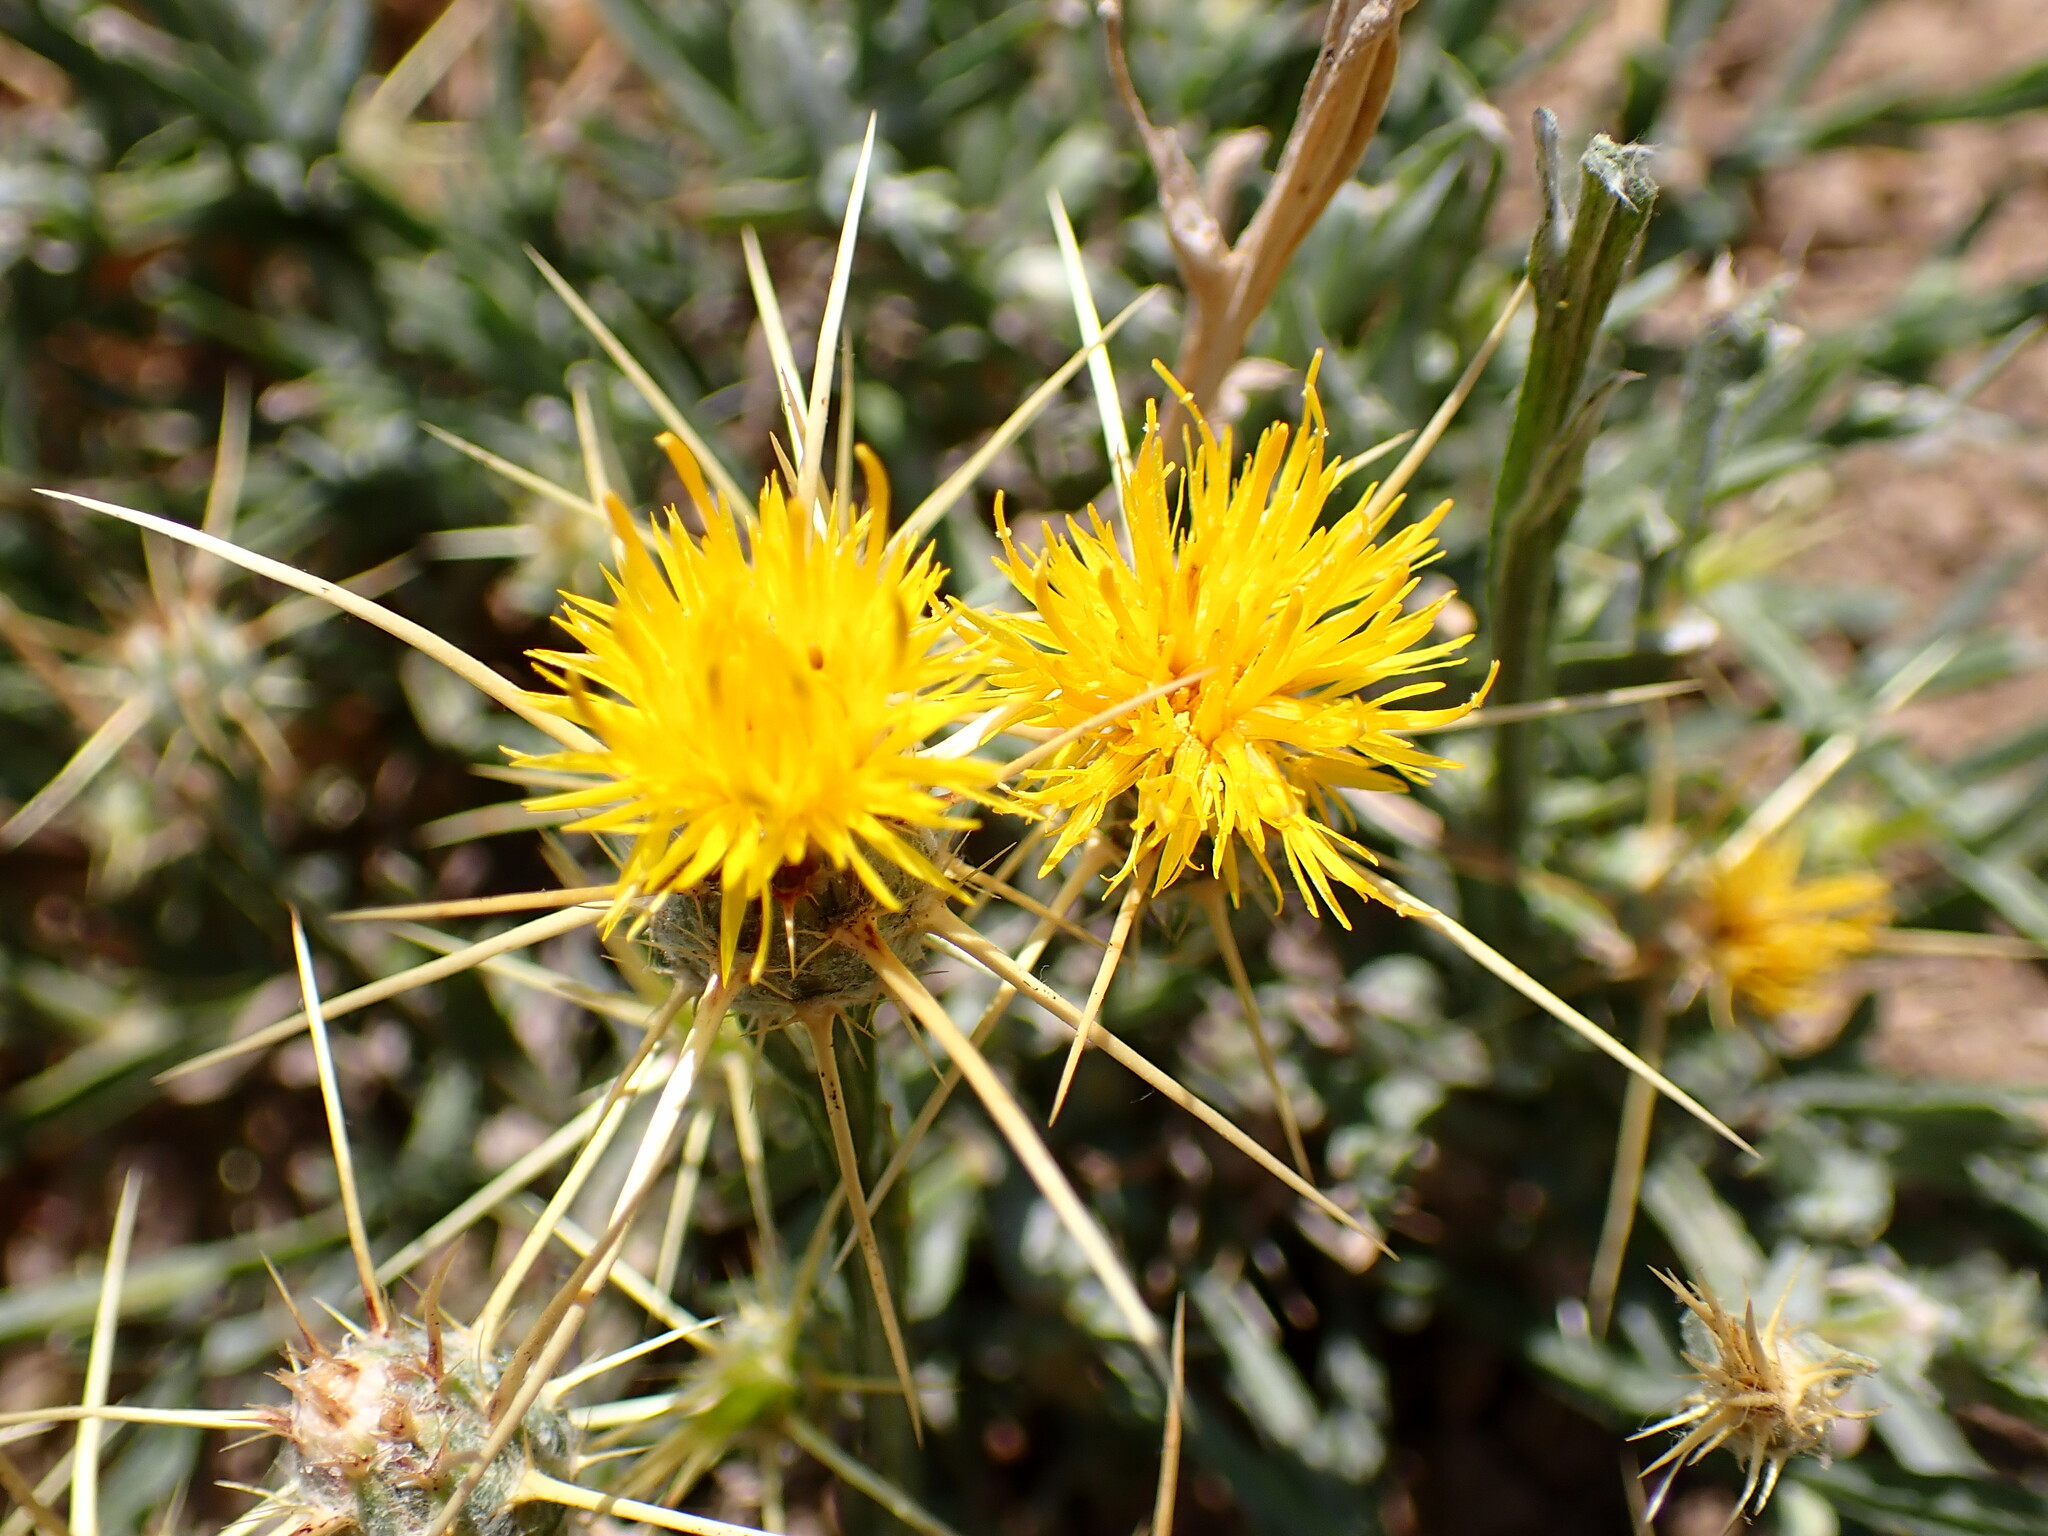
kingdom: Plantae
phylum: Tracheophyta
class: Magnoliopsida
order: Asterales
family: Asteraceae
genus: Centaurea
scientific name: Centaurea solstitialis
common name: Yellow star-thistle
